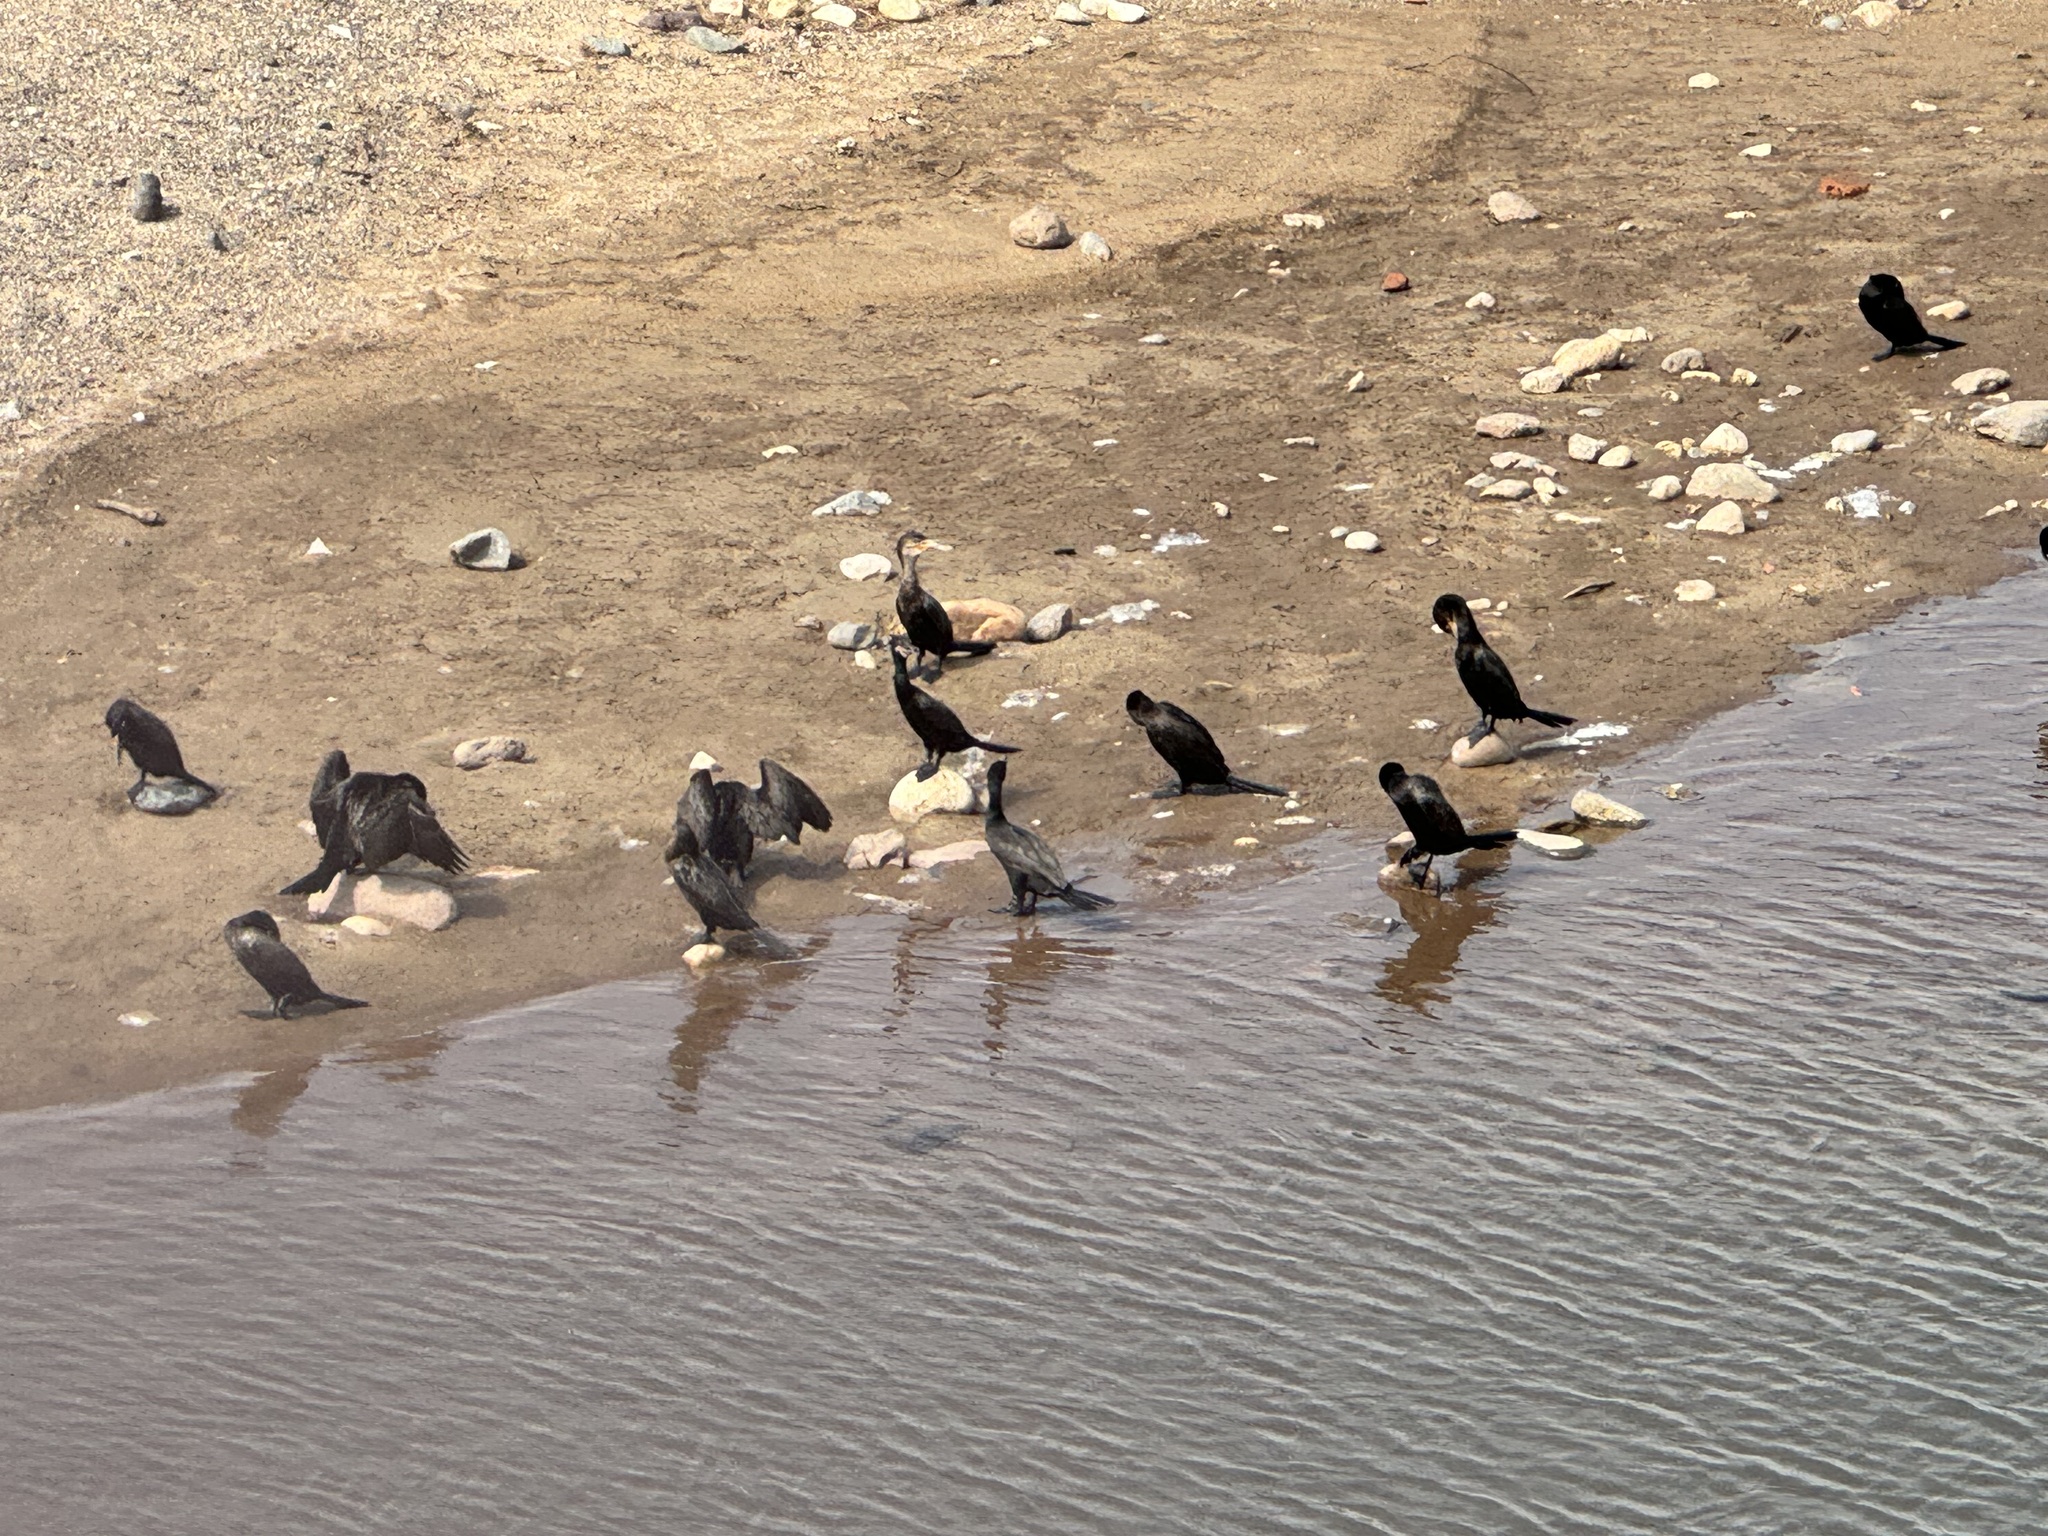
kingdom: Animalia
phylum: Chordata
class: Aves
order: Suliformes
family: Phalacrocoracidae
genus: Phalacrocorax
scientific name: Phalacrocorax brasilianus
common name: Neotropic cormorant
